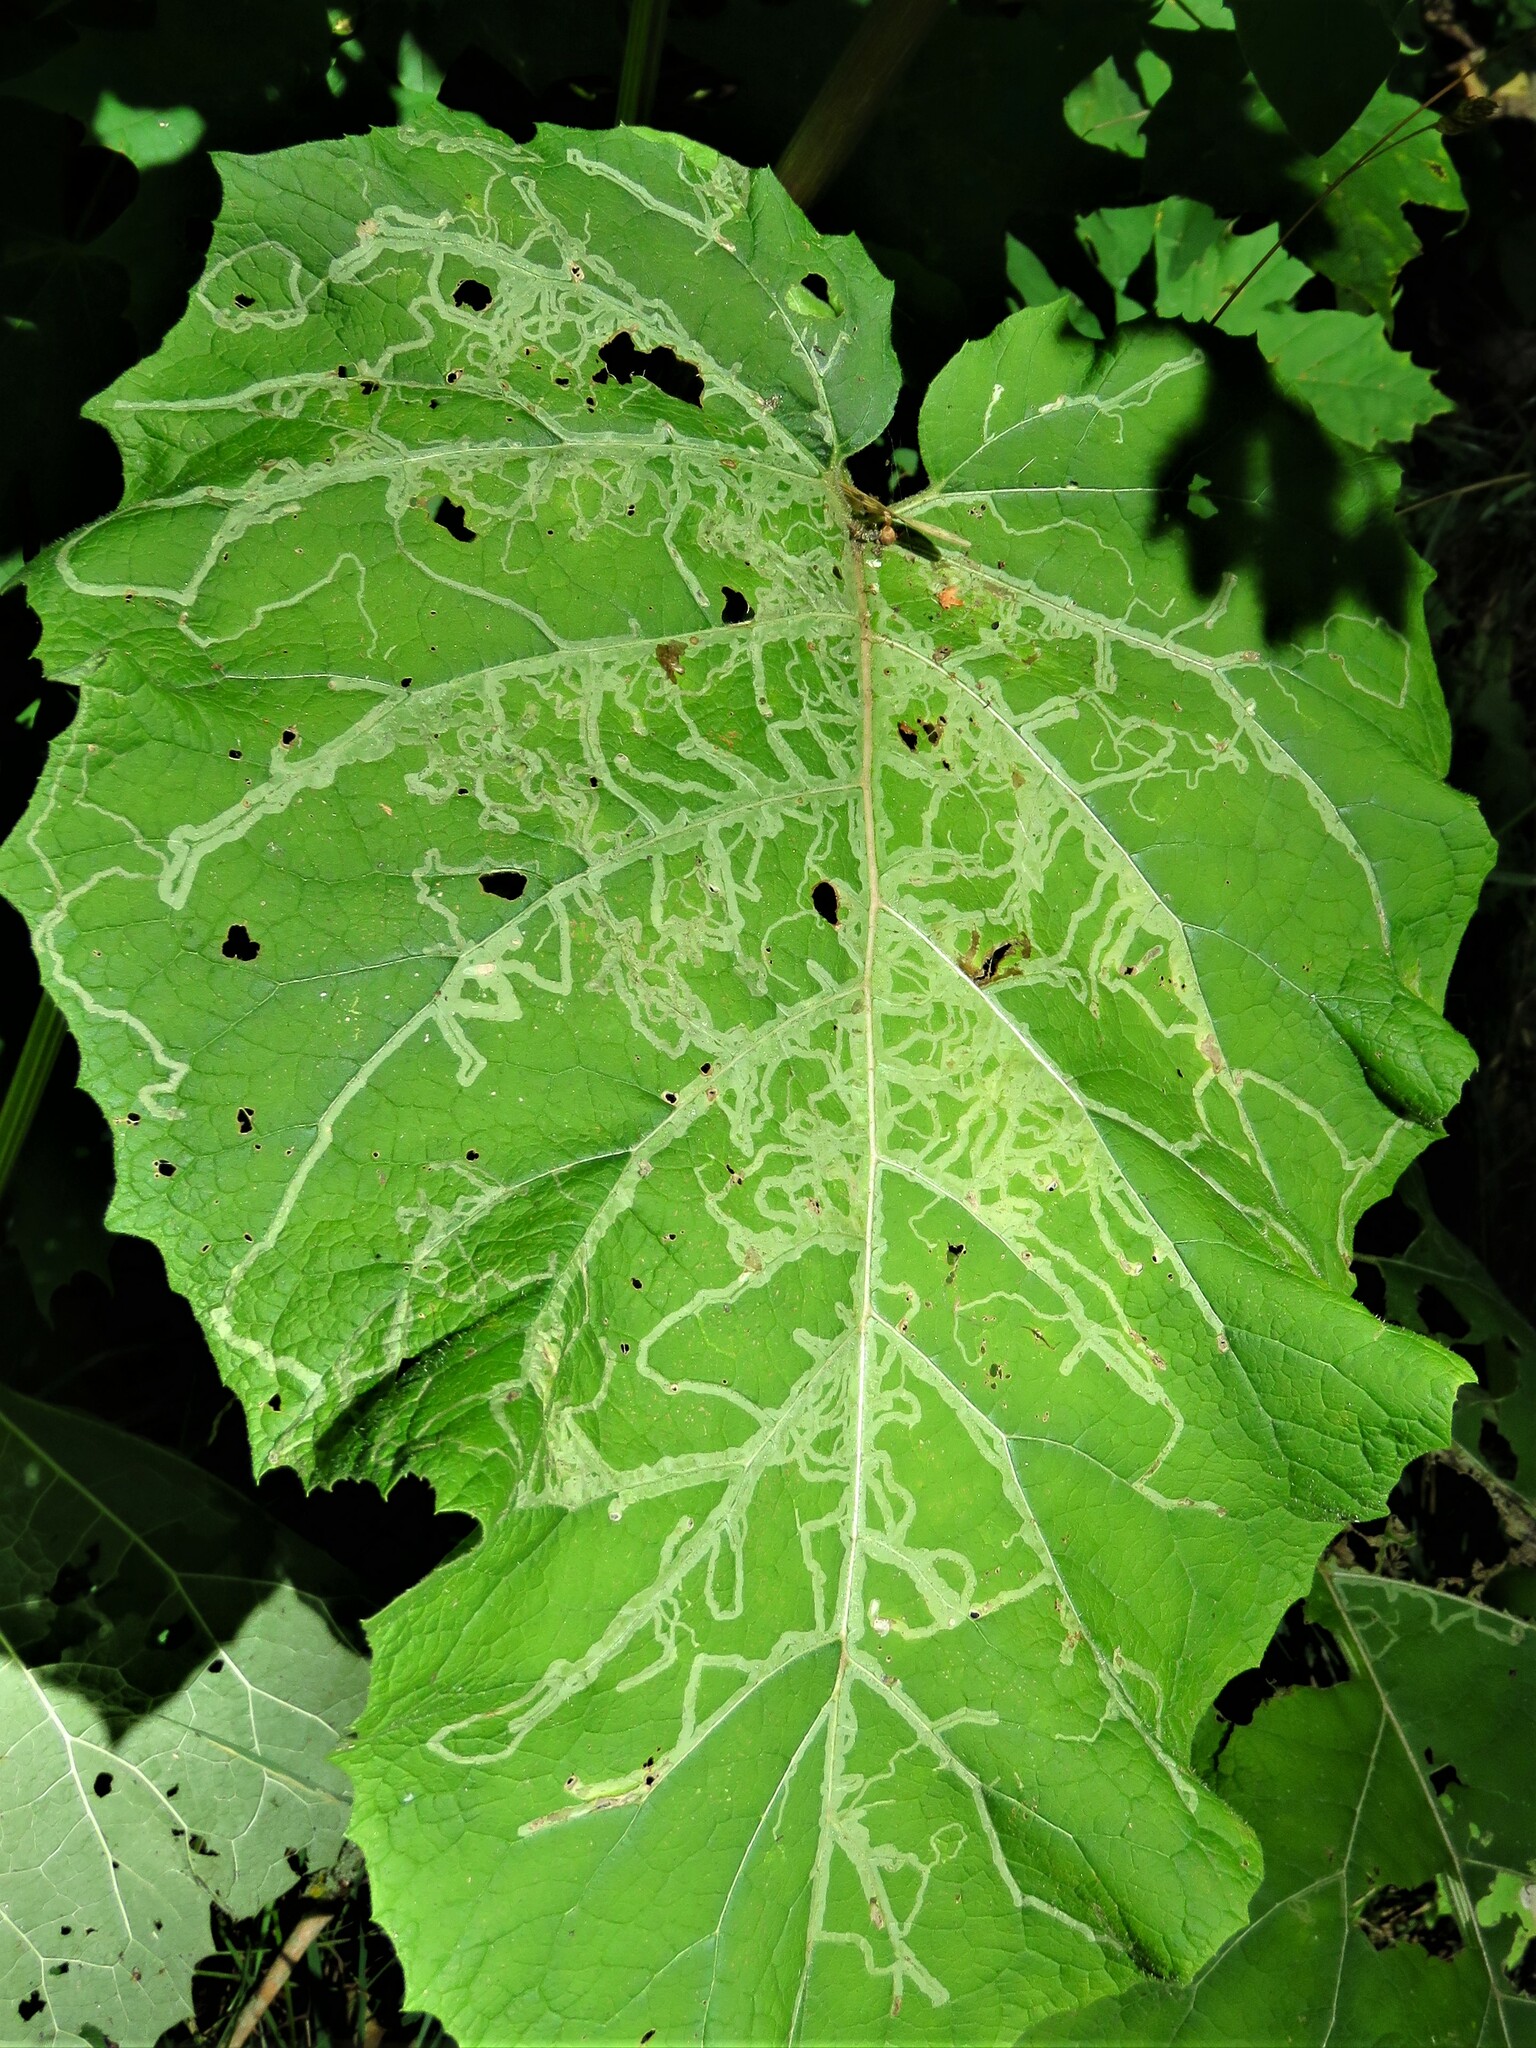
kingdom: Animalia
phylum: Arthropoda
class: Insecta
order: Diptera
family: Agromyzidae
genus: Phytomyza
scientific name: Phytomyza lappae
